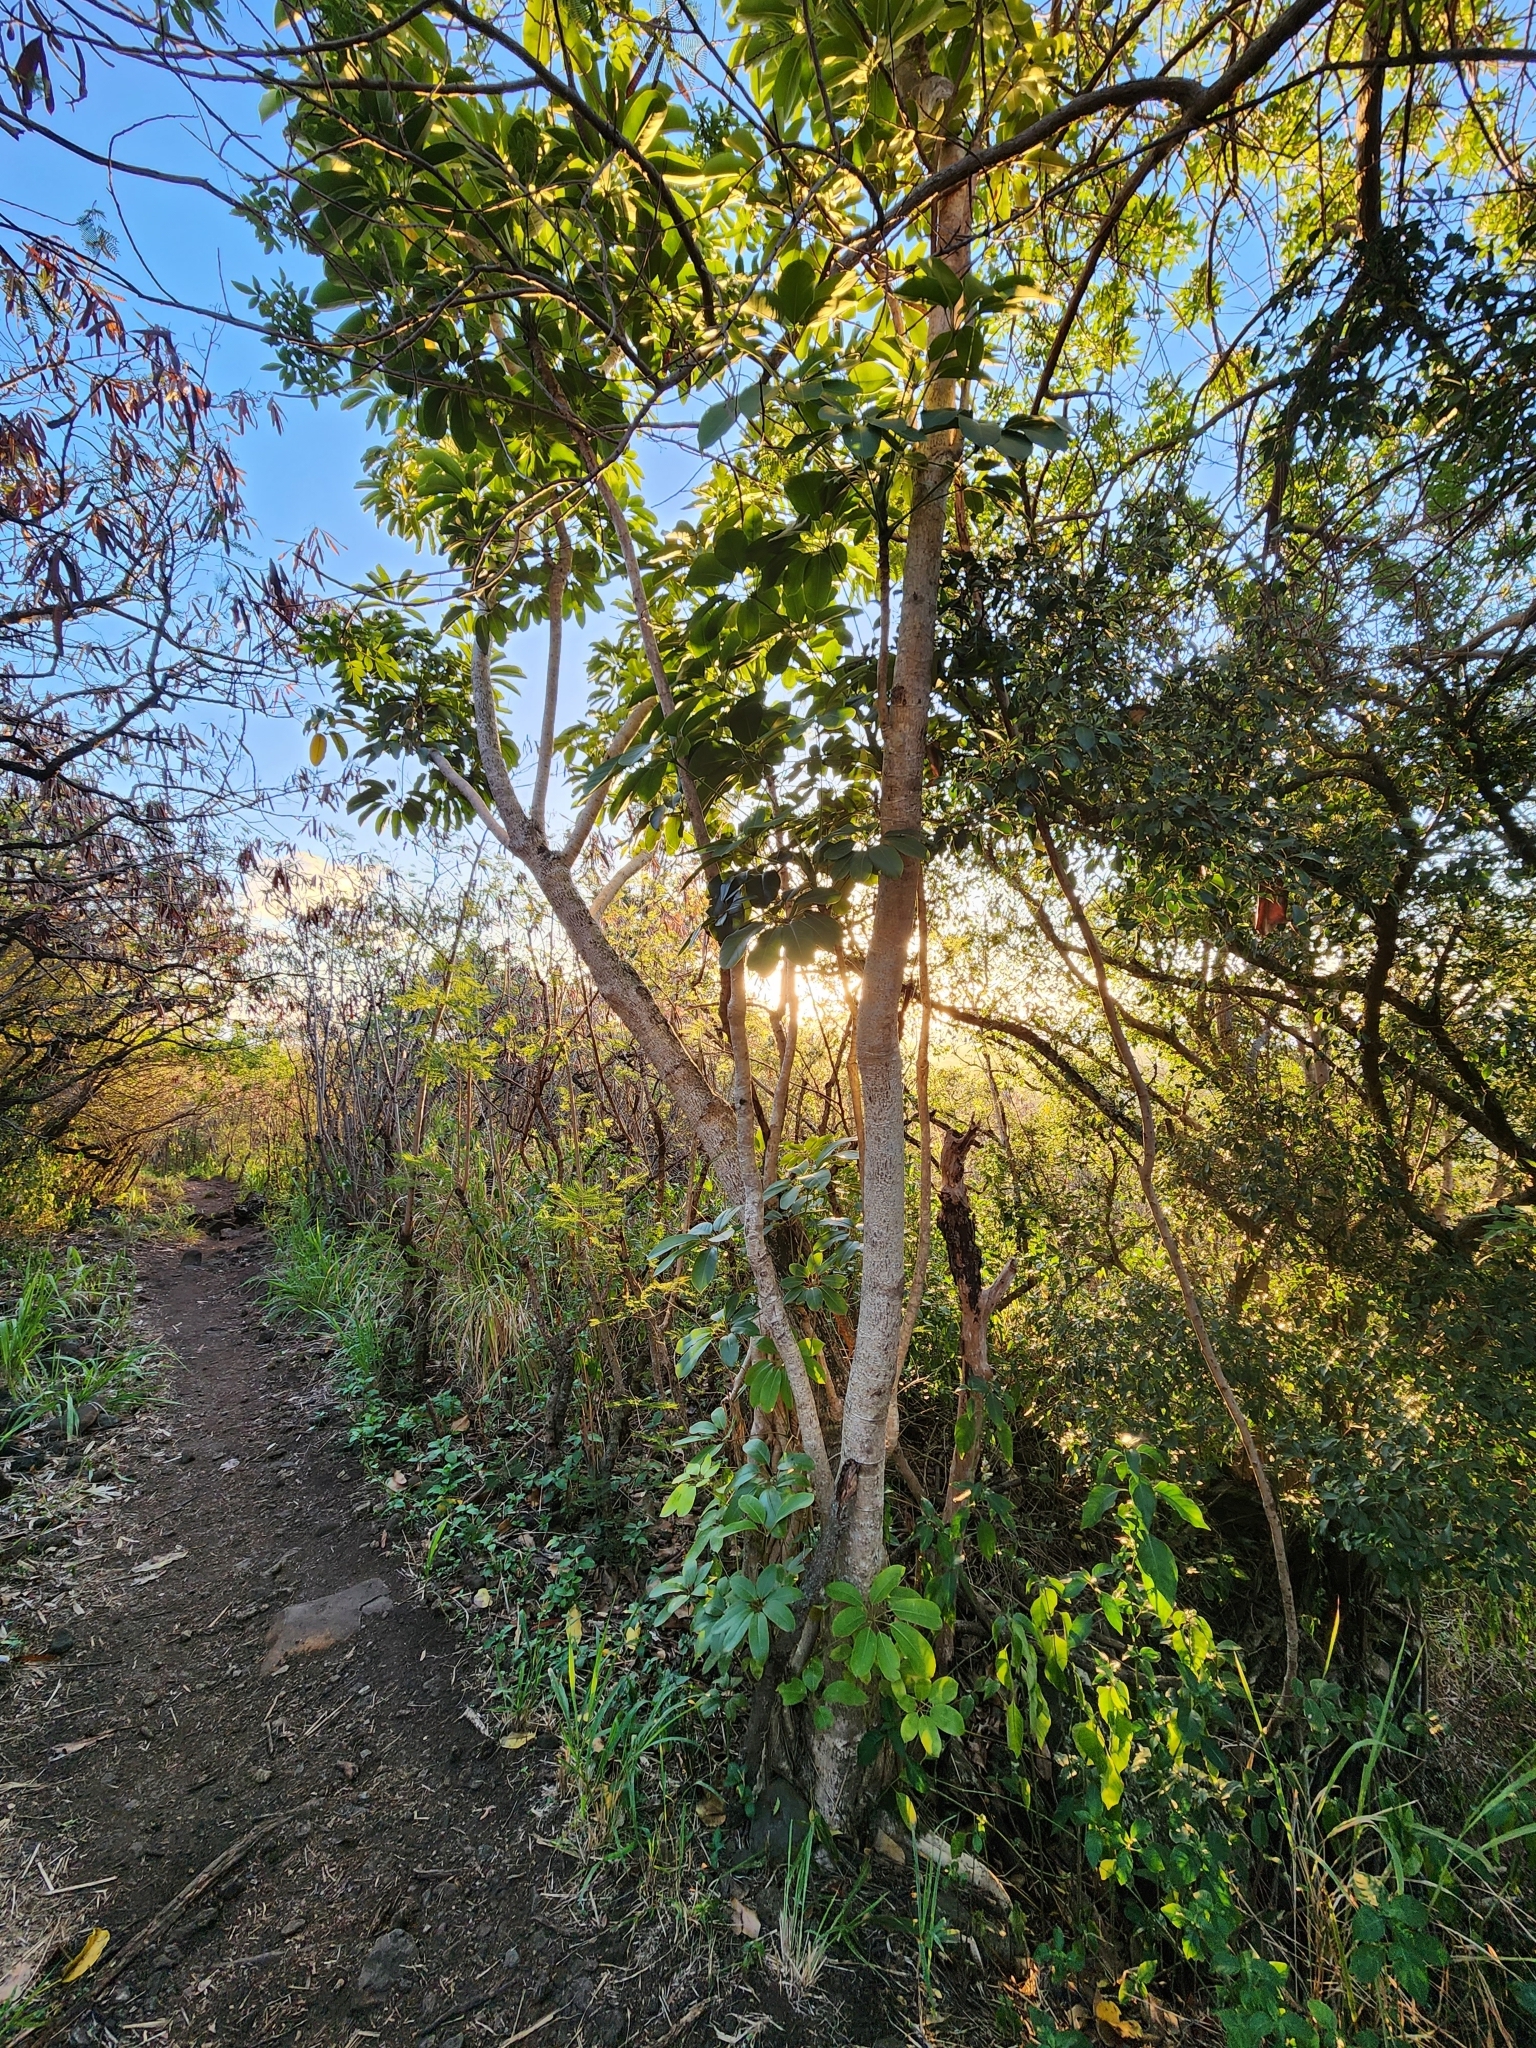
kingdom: Plantae
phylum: Tracheophyta
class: Magnoliopsida
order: Apiales
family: Araliaceae
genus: Heptapleurum
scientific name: Heptapleurum actinophyllum
